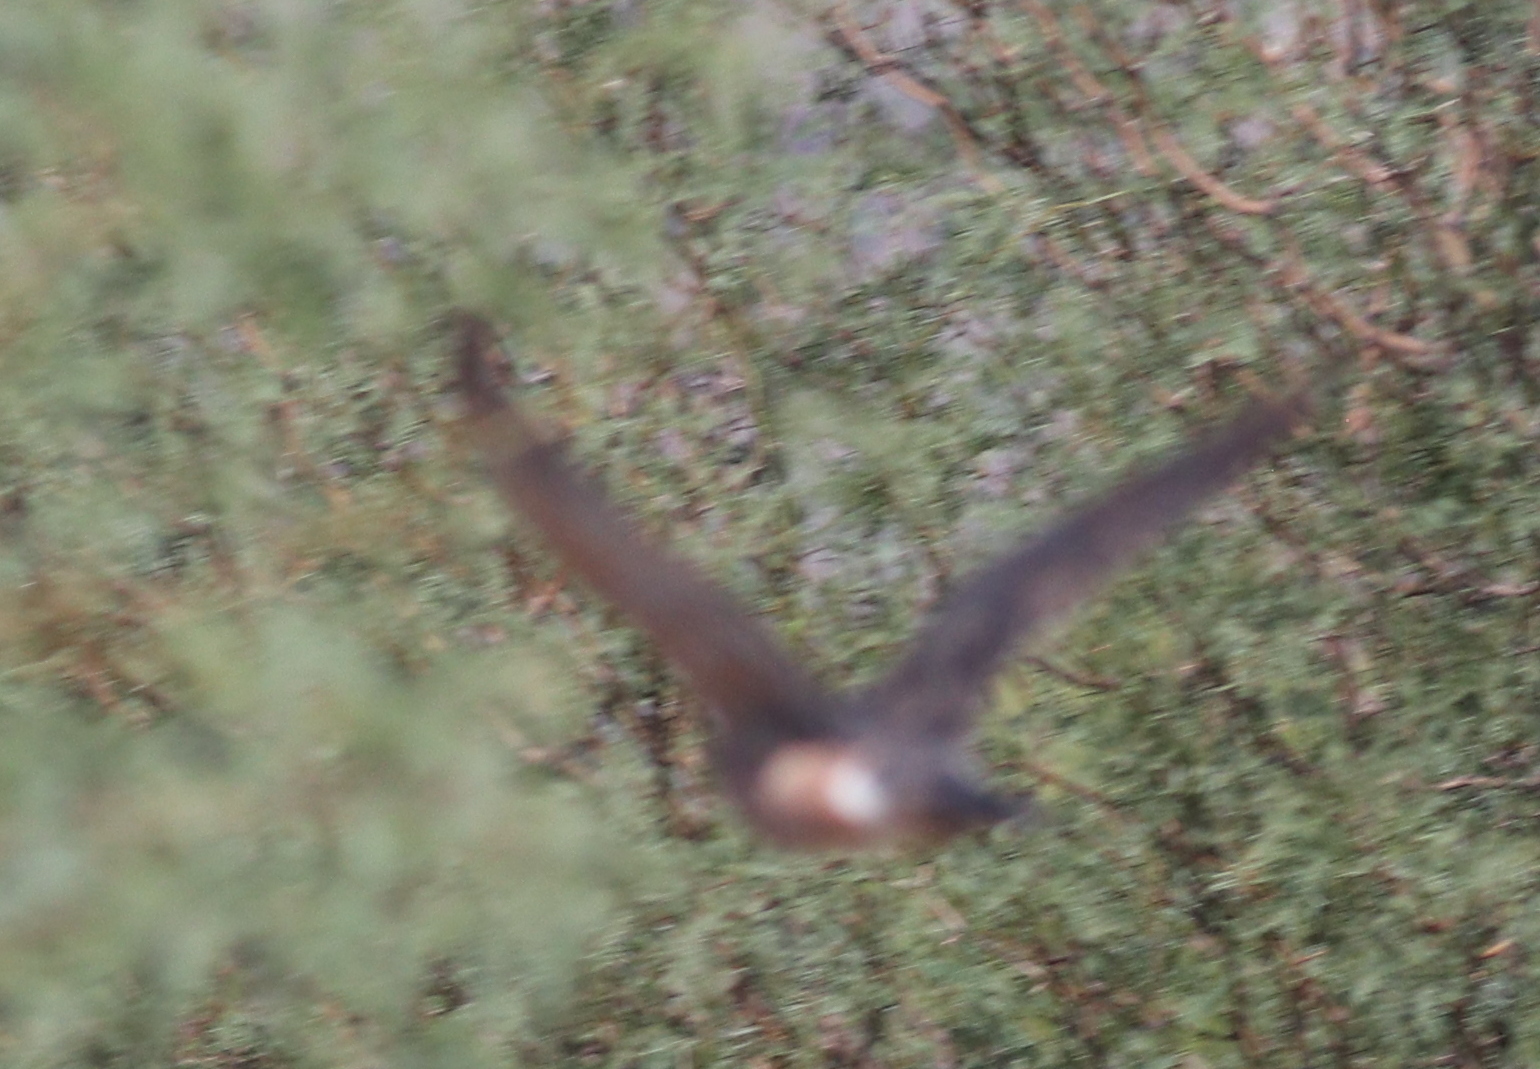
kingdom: Animalia
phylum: Chordata
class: Aves
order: Accipitriformes
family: Accipitridae
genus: Accipiter
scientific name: Accipiter cooperii
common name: Cooper's hawk
